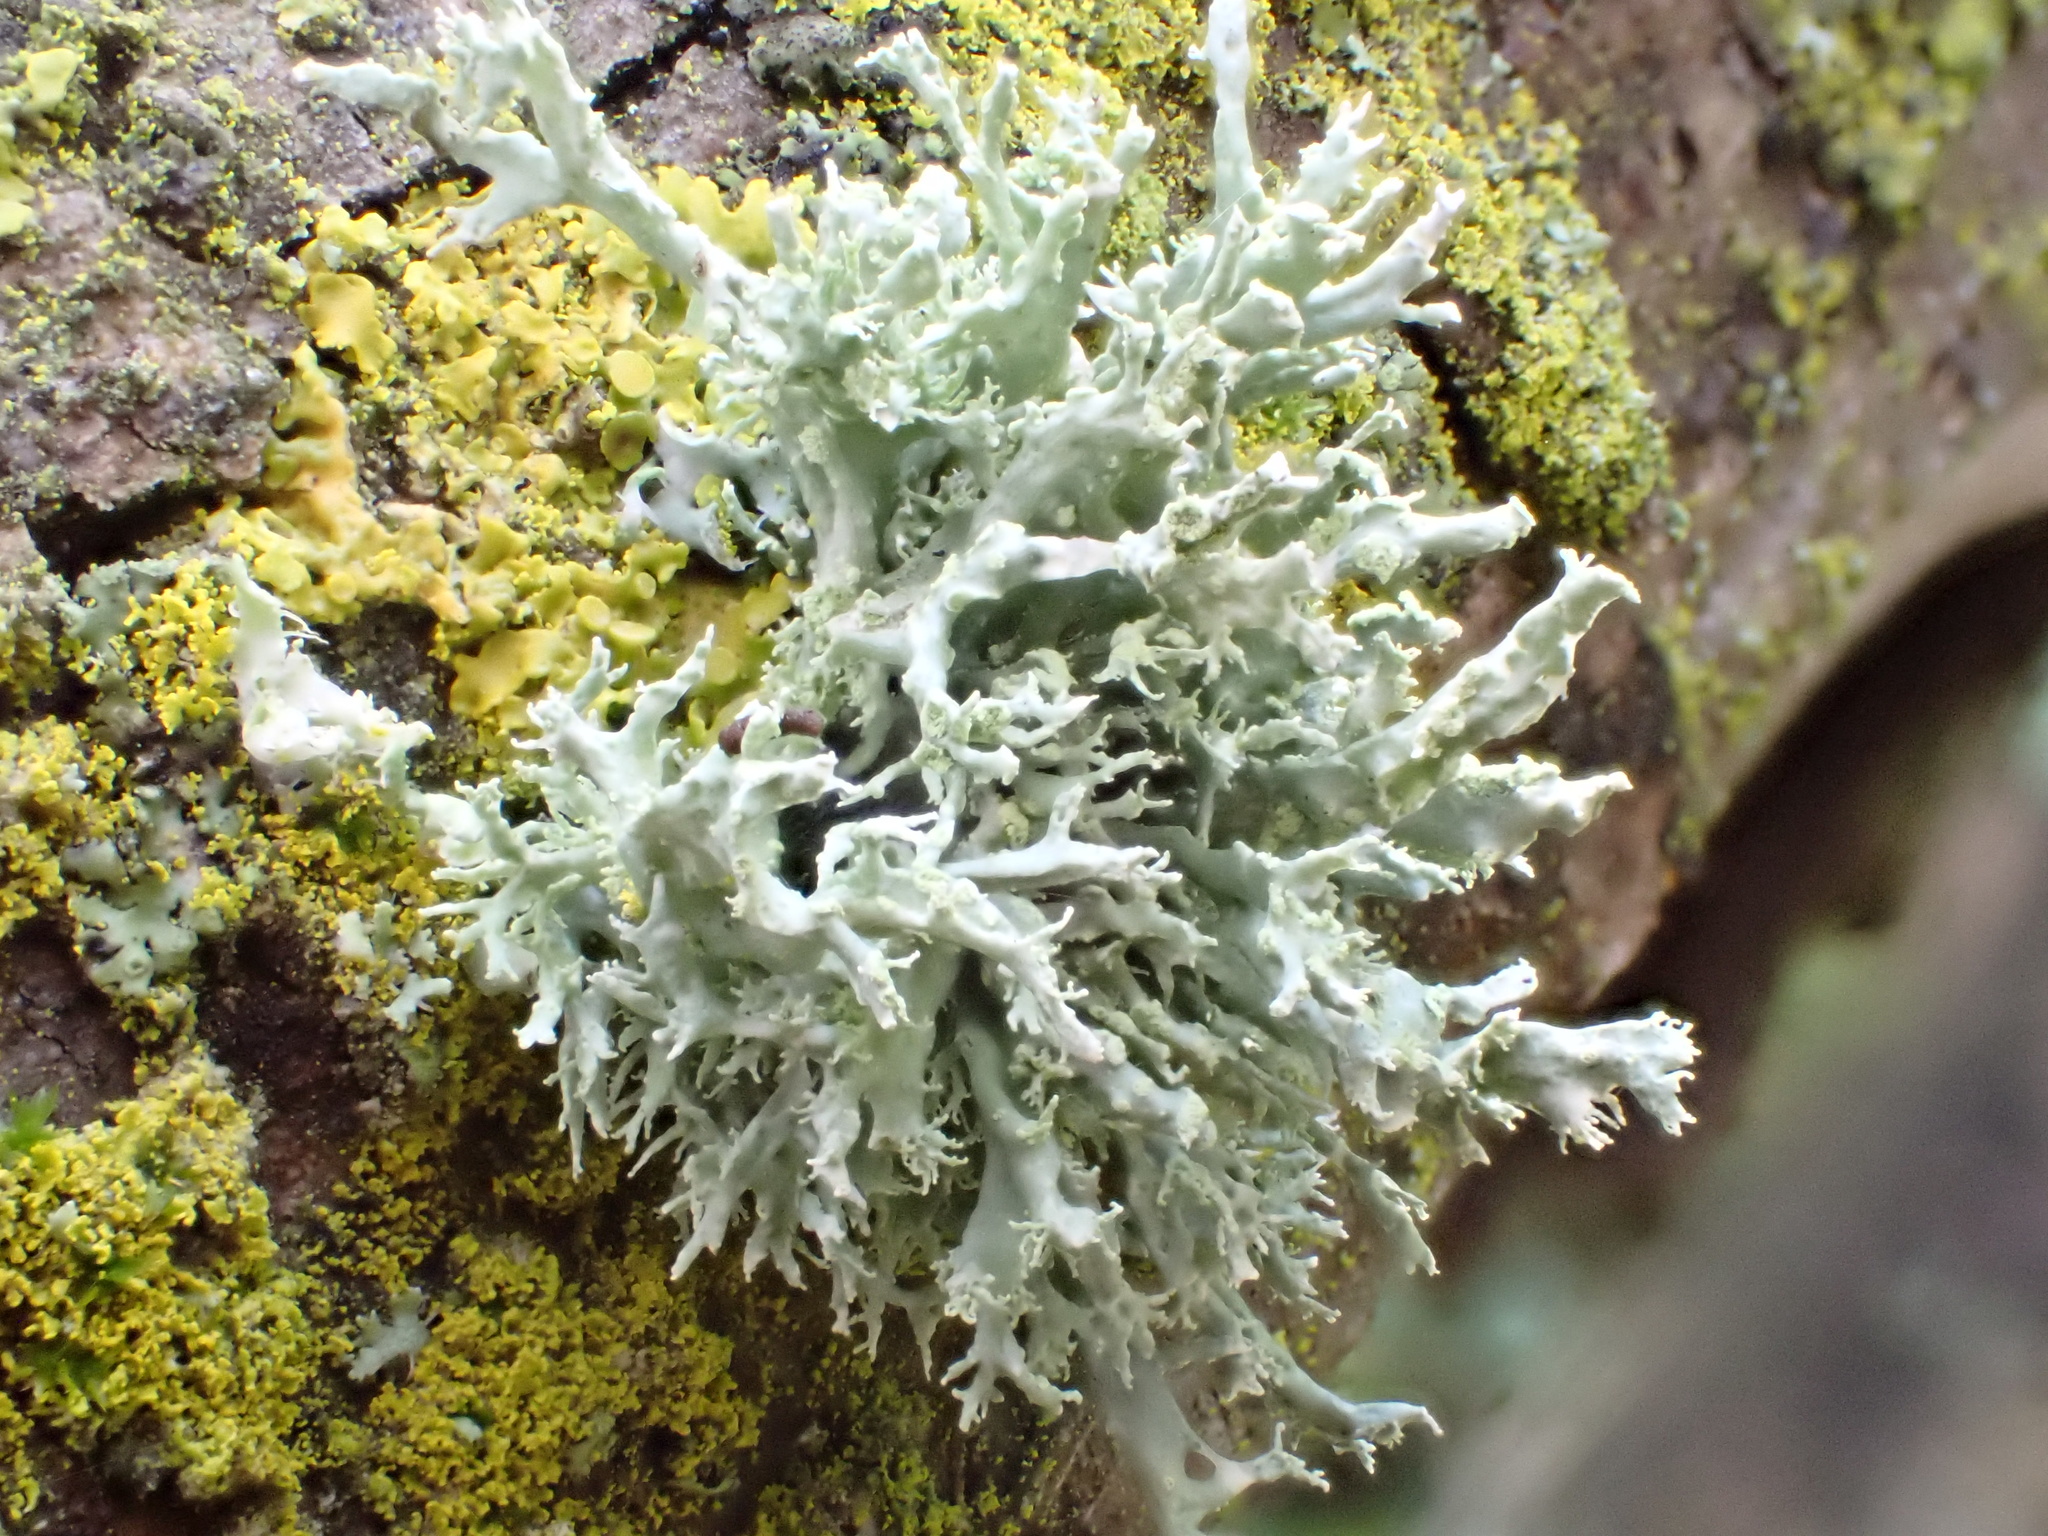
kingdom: Fungi
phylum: Ascomycota
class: Lecanoromycetes
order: Lecanorales
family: Ramalinaceae
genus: Ramalina
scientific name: Ramalina farinacea
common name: Farinose cartilage lichen
